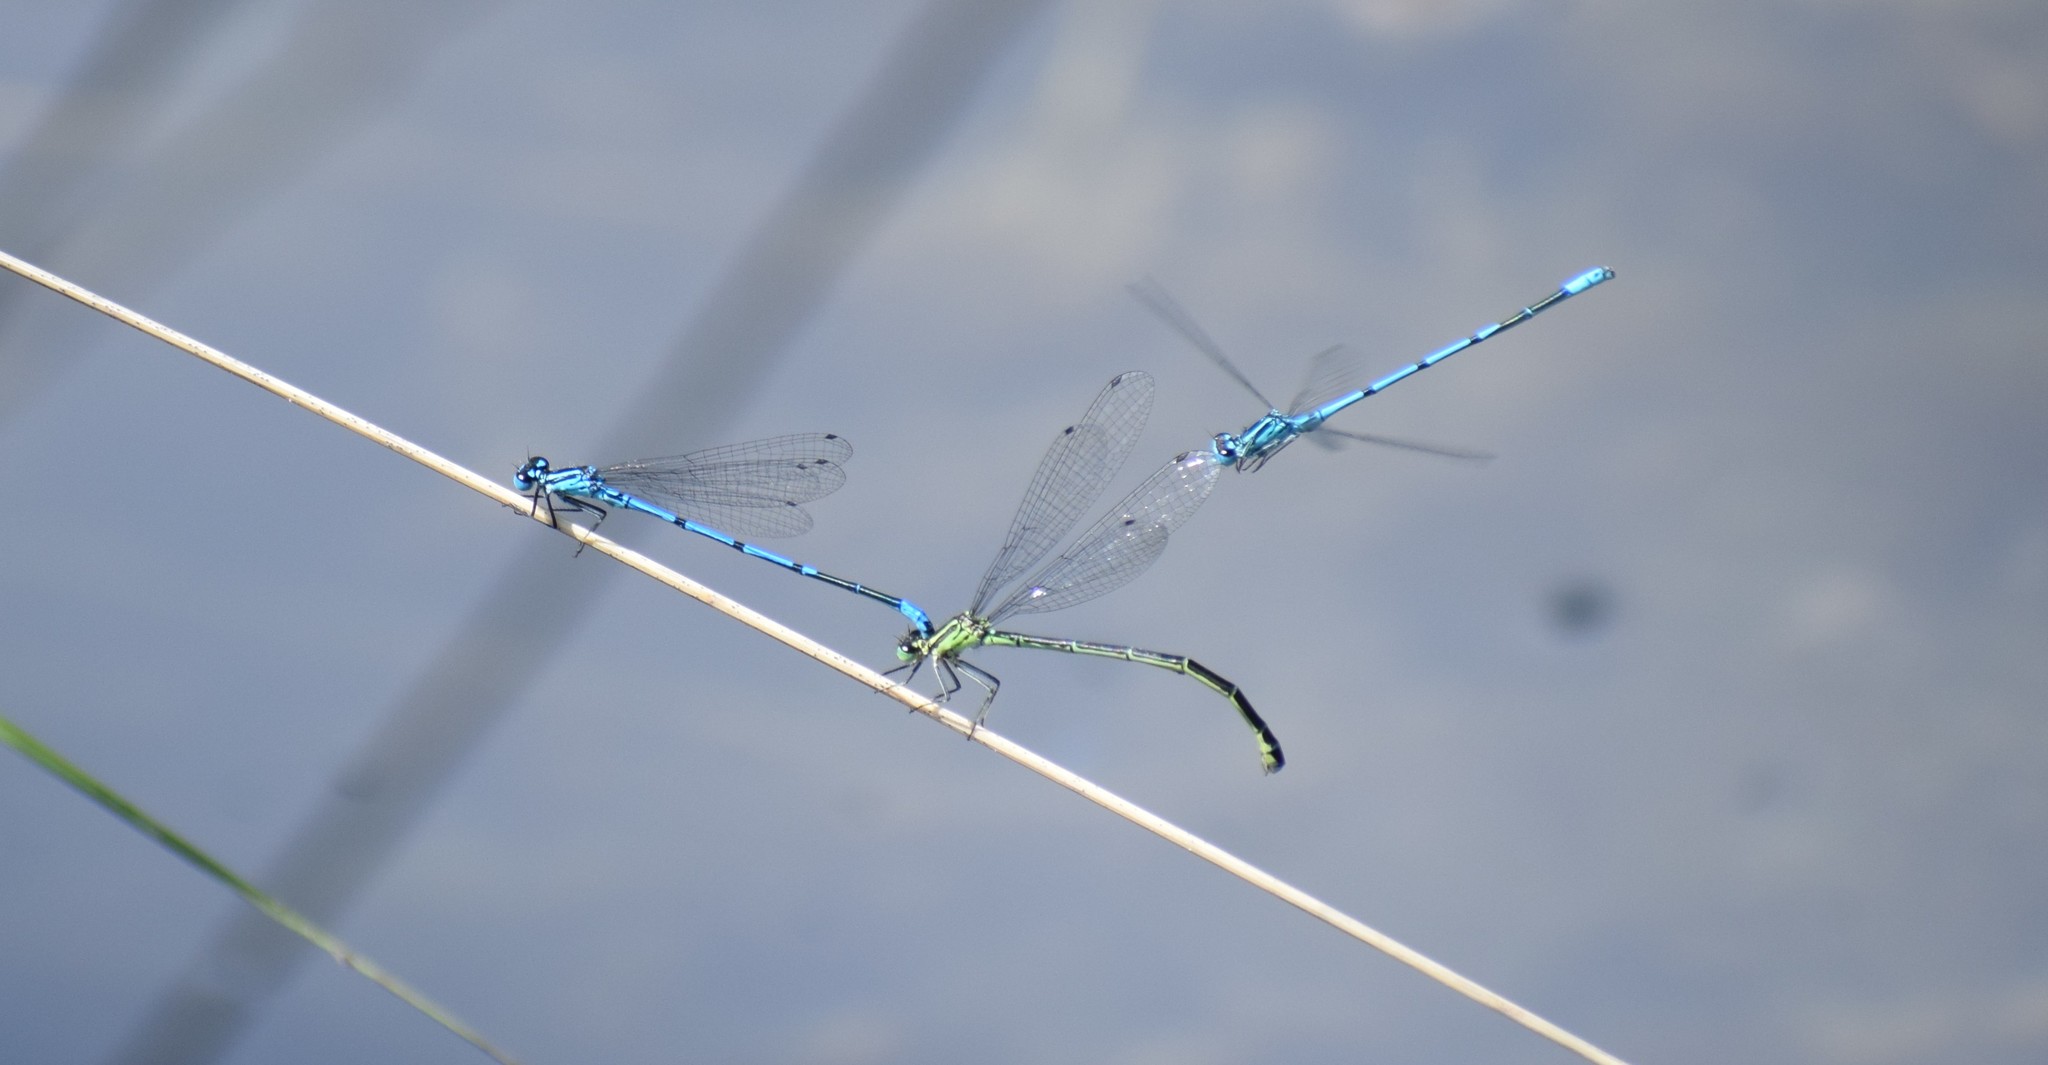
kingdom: Animalia
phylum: Arthropoda
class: Insecta
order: Odonata
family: Coenagrionidae
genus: Coenagrion
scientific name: Coenagrion puella
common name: Azure damselfly
